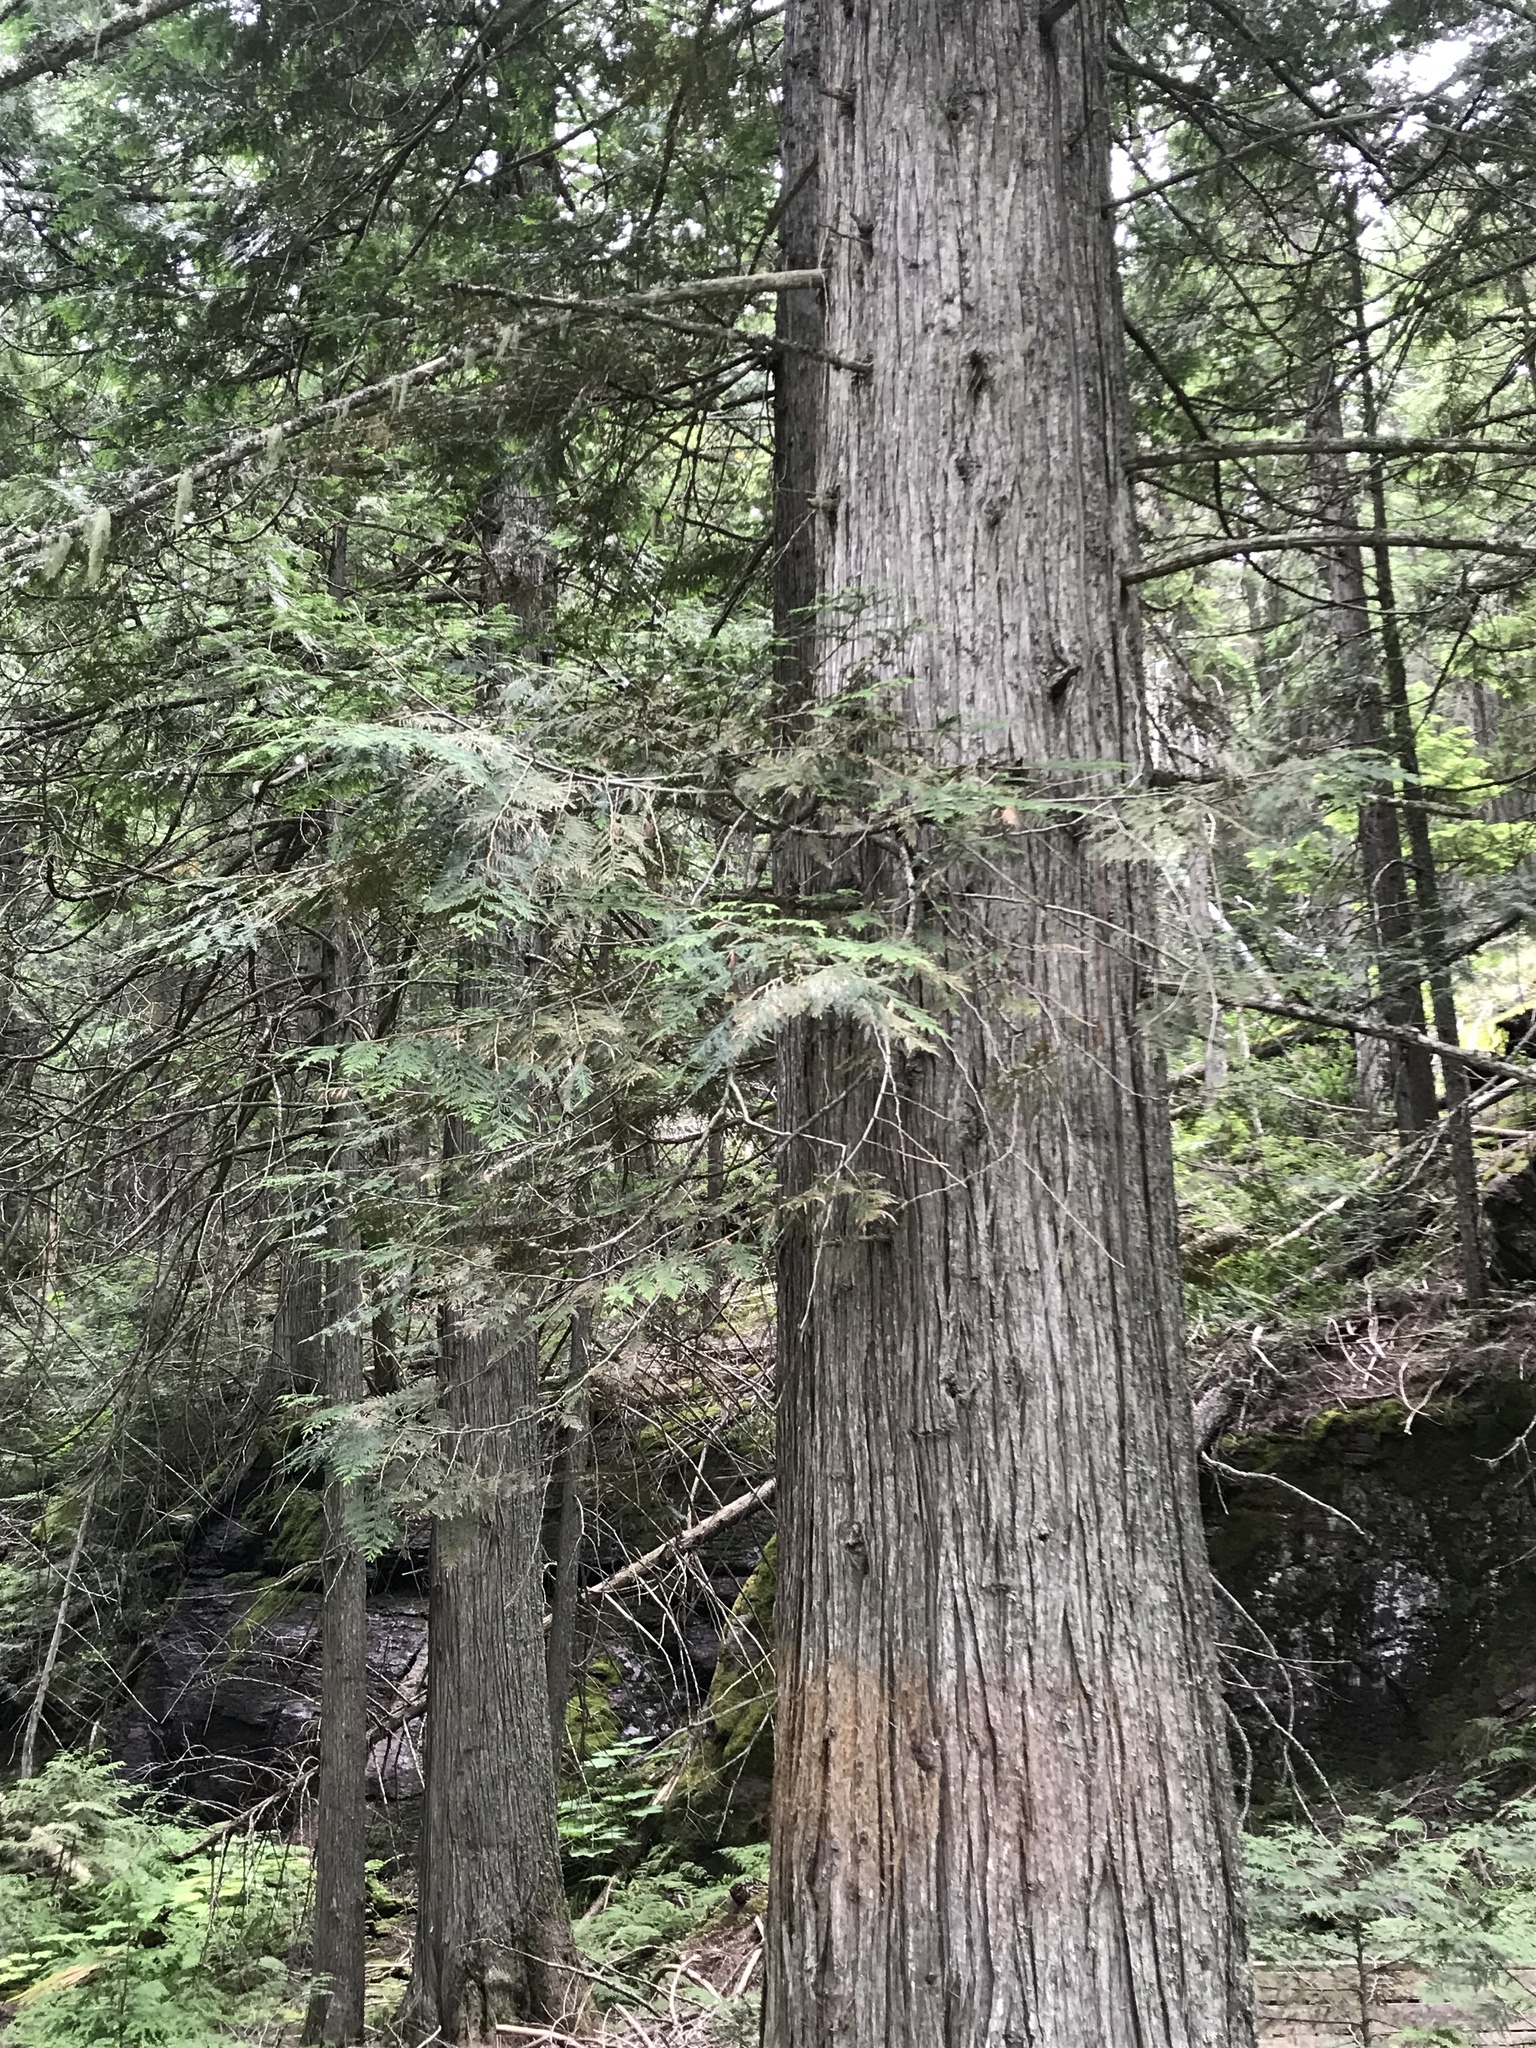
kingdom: Plantae
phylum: Tracheophyta
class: Pinopsida
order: Pinales
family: Cupressaceae
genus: Thuja
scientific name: Thuja plicata
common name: Western red-cedar
